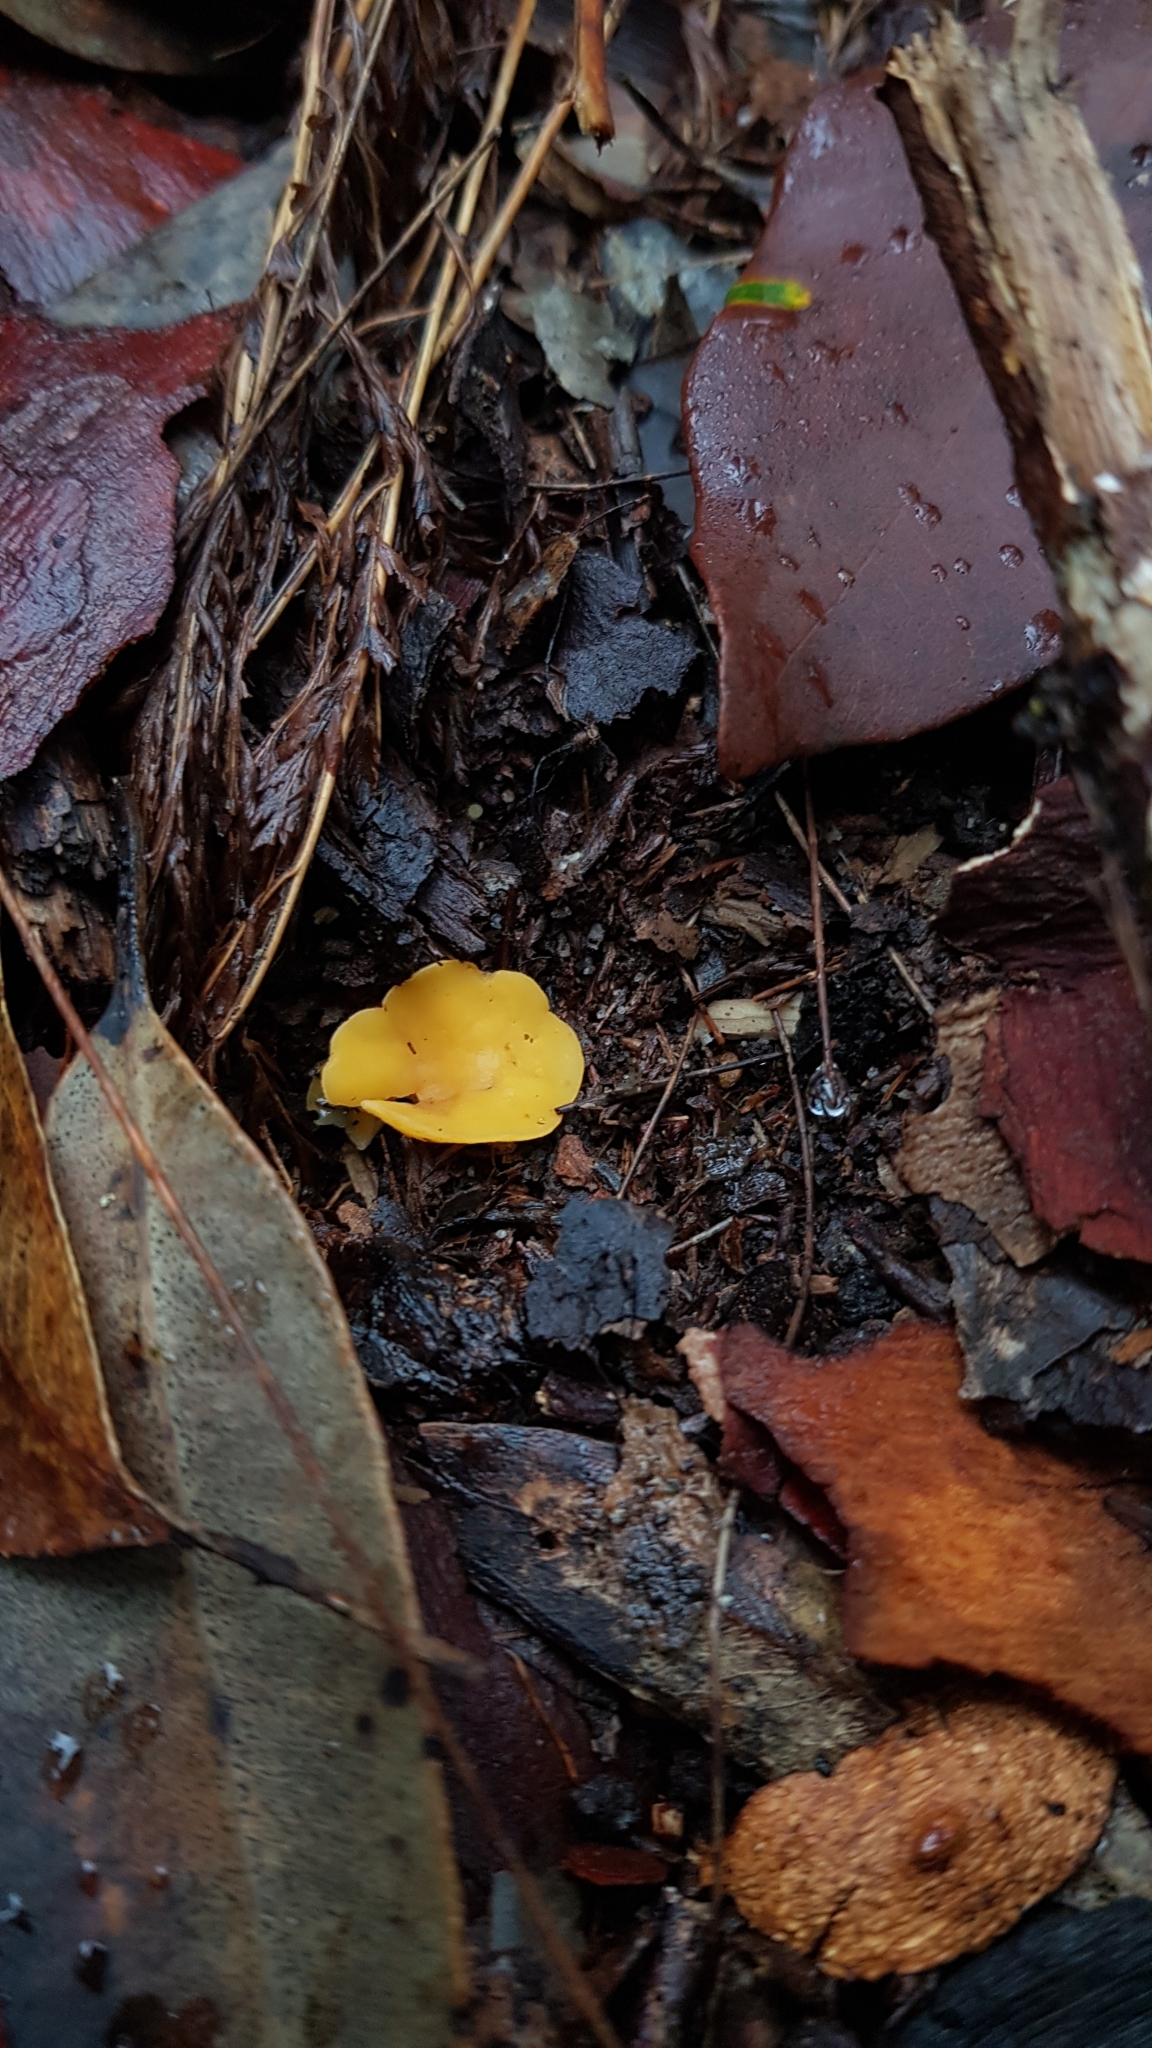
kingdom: Fungi
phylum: Ascomycota
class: Leotiomycetes
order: Helotiales
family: Helotiaceae
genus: Phaeohelotium
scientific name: Phaeohelotium baileyanum
